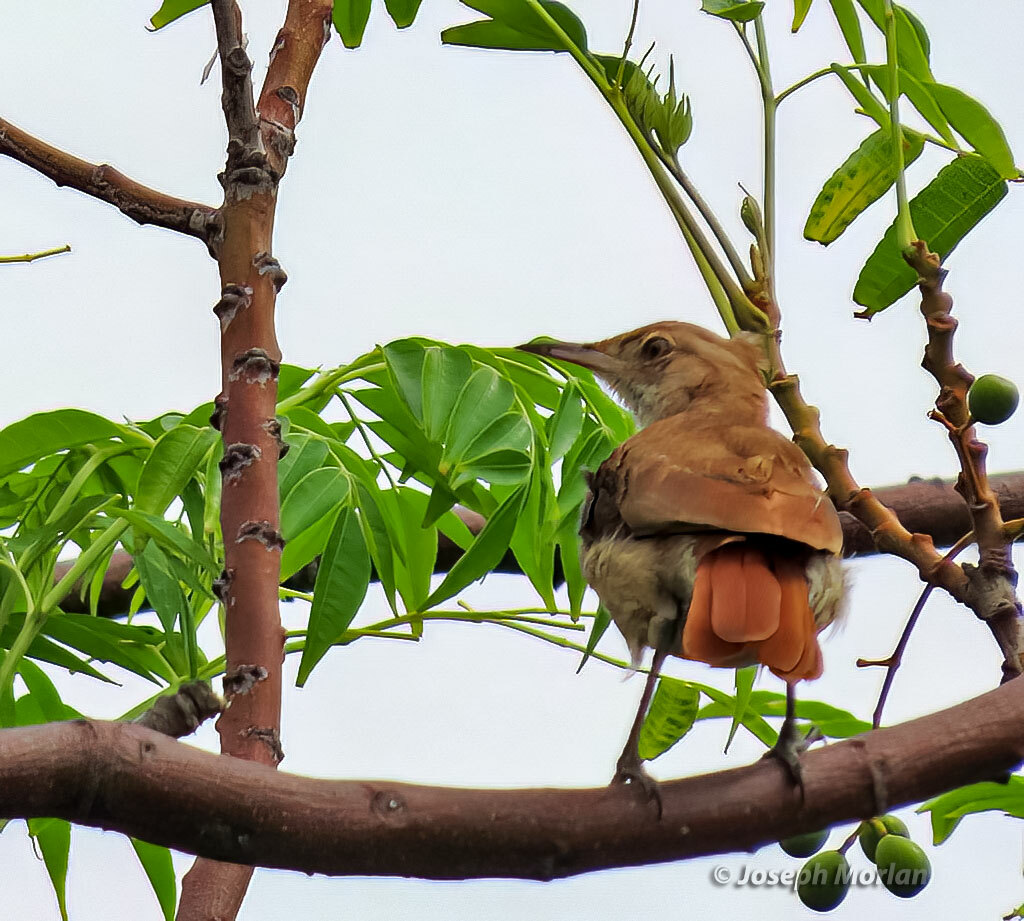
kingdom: Animalia
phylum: Chordata
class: Aves
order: Passeriformes
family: Furnariidae
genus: Furnarius
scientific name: Furnarius rufus
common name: Rufous hornero
